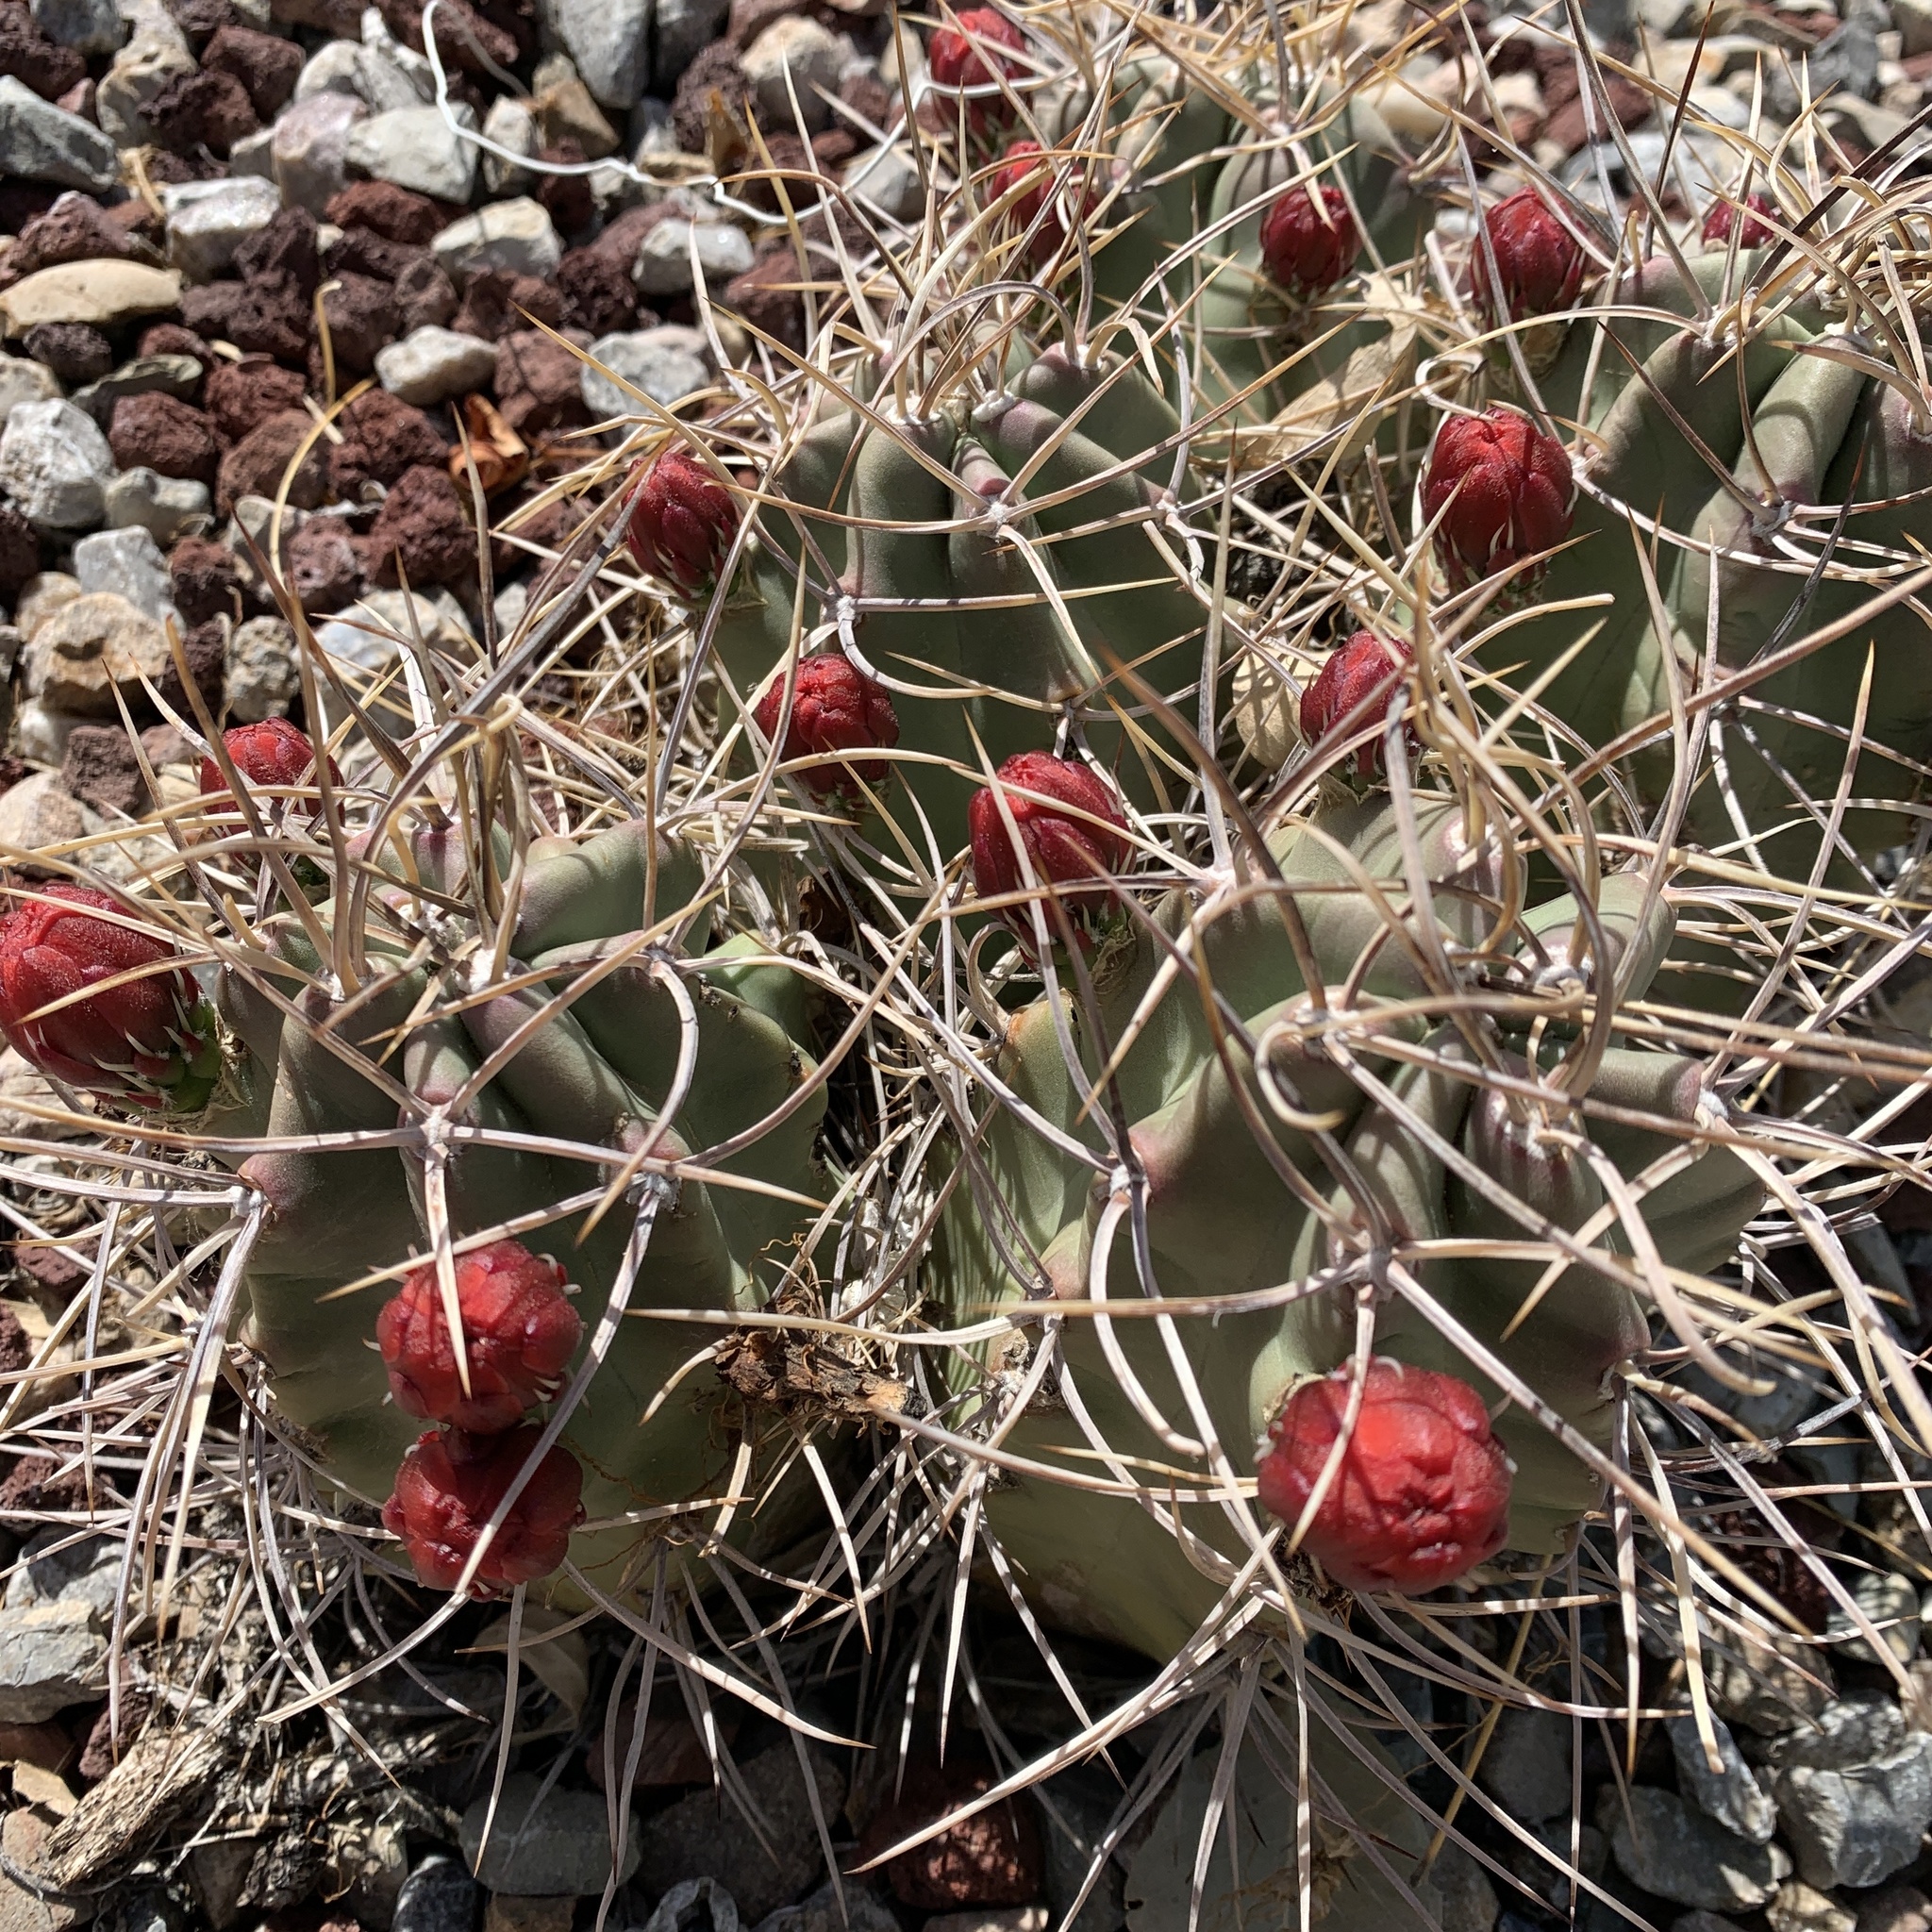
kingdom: Plantae
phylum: Tracheophyta
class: Magnoliopsida
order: Caryophyllales
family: Cactaceae
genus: Echinocereus
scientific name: Echinocereus triglochidiatus
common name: Claretcup hedgehog
